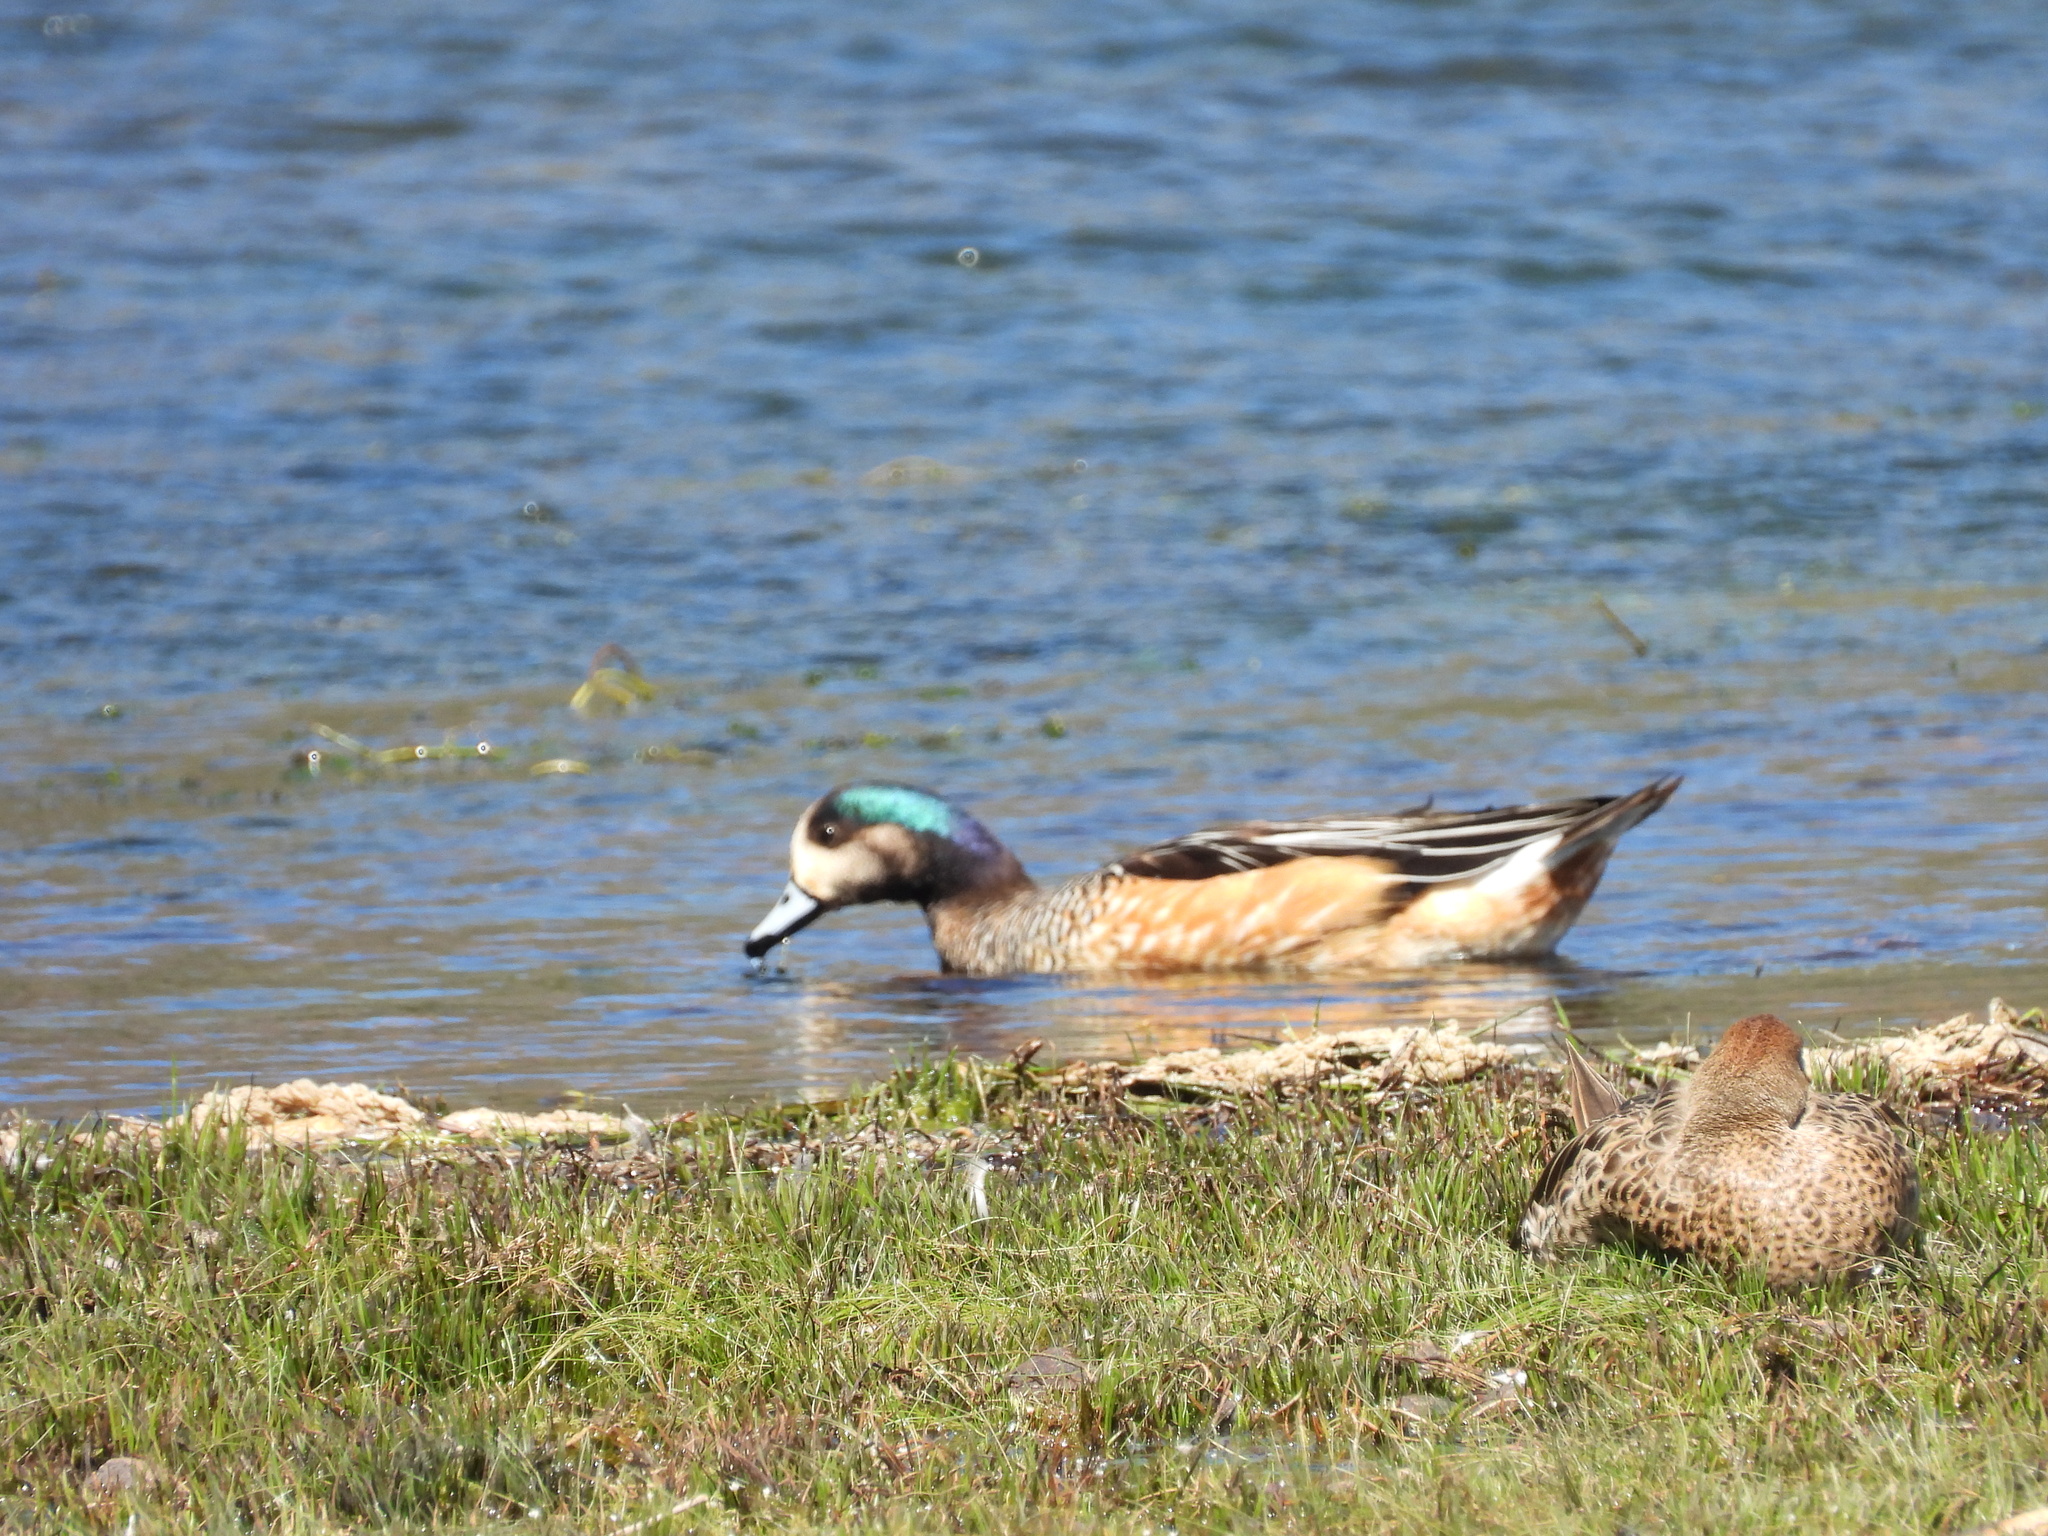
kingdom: Animalia
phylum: Chordata
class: Aves
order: Anseriformes
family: Anatidae
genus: Mareca
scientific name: Mareca sibilatrix
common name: Chiloe wigeon
